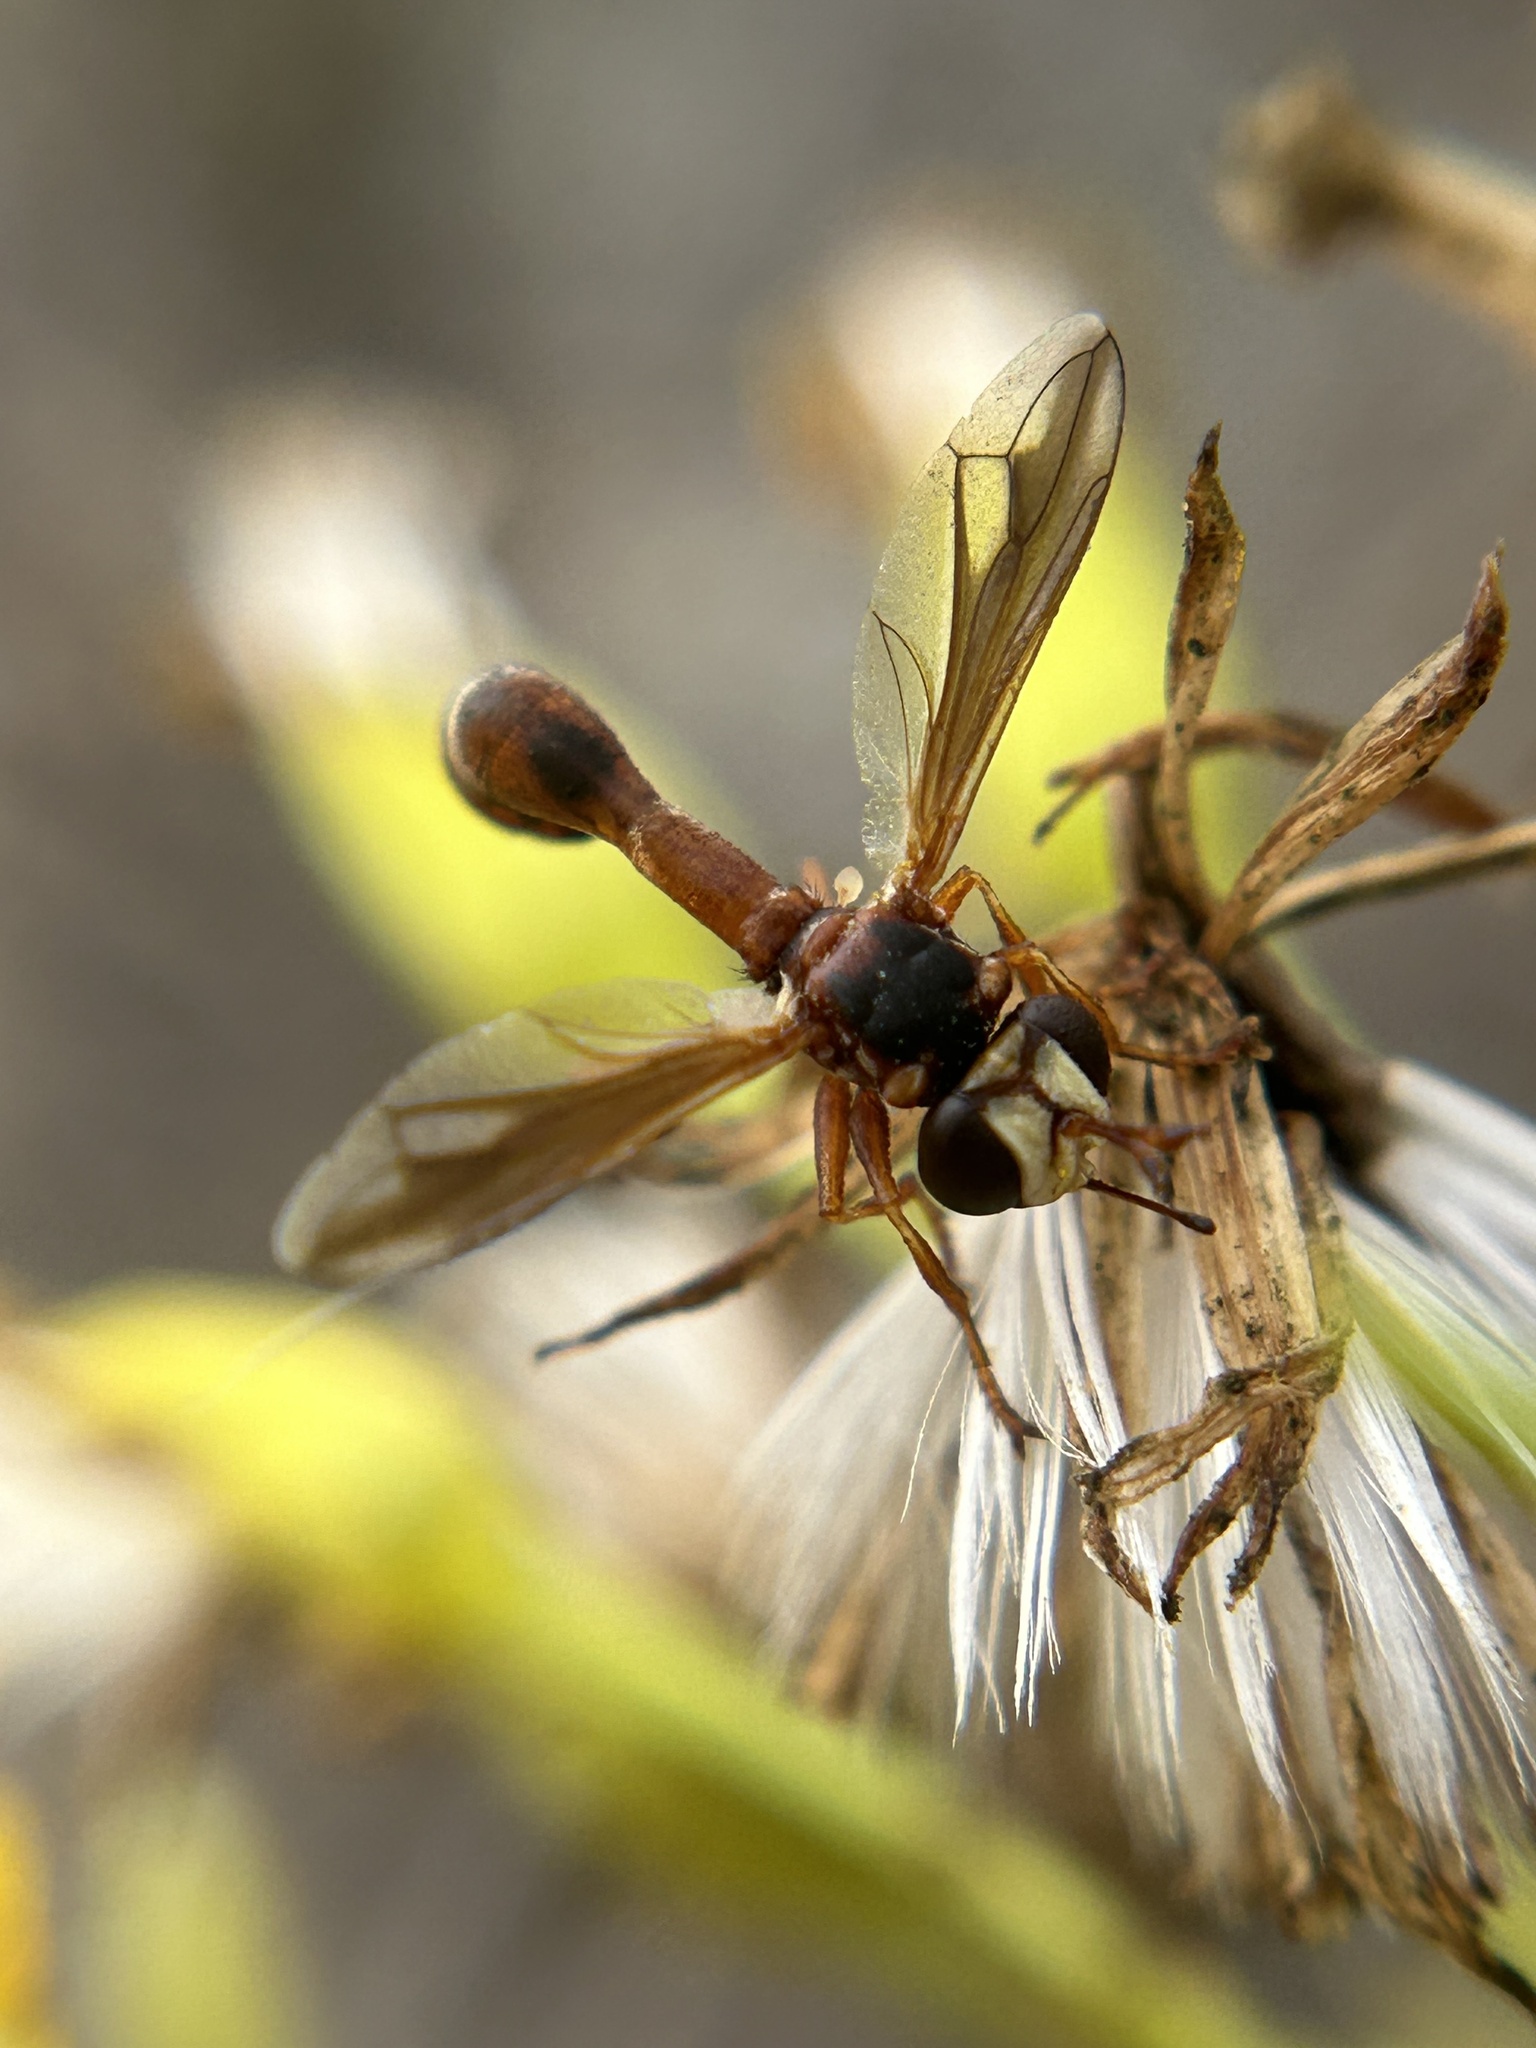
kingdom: Animalia
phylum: Arthropoda
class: Insecta
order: Diptera
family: Conopidae
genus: Physocephala
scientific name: Physocephala texana
